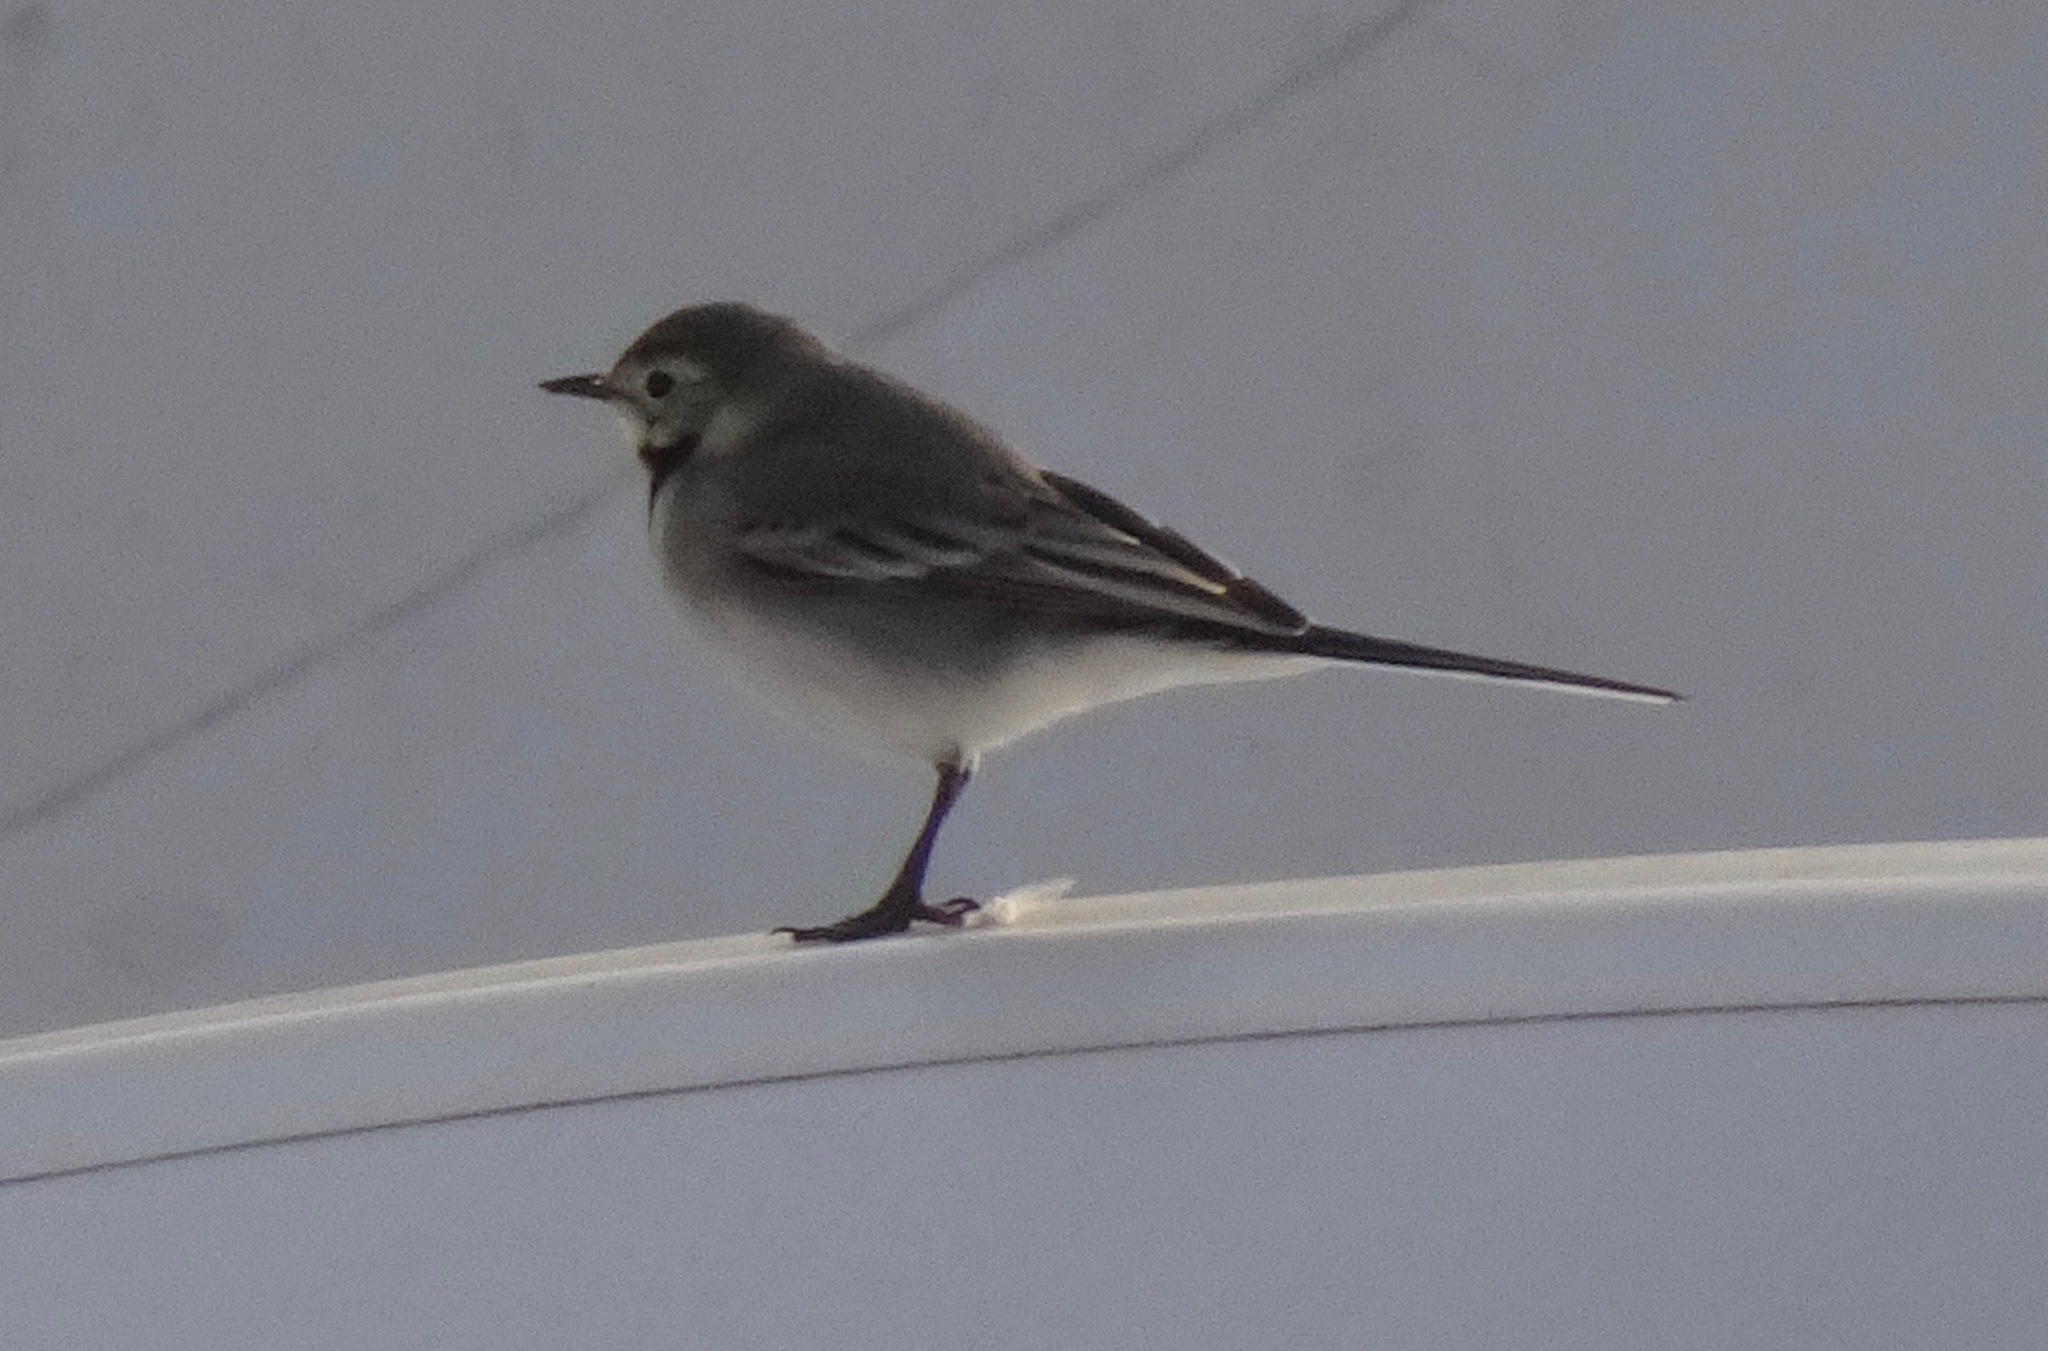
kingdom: Animalia
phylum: Chordata
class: Aves
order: Passeriformes
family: Motacillidae
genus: Motacilla
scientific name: Motacilla alba
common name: White wagtail
